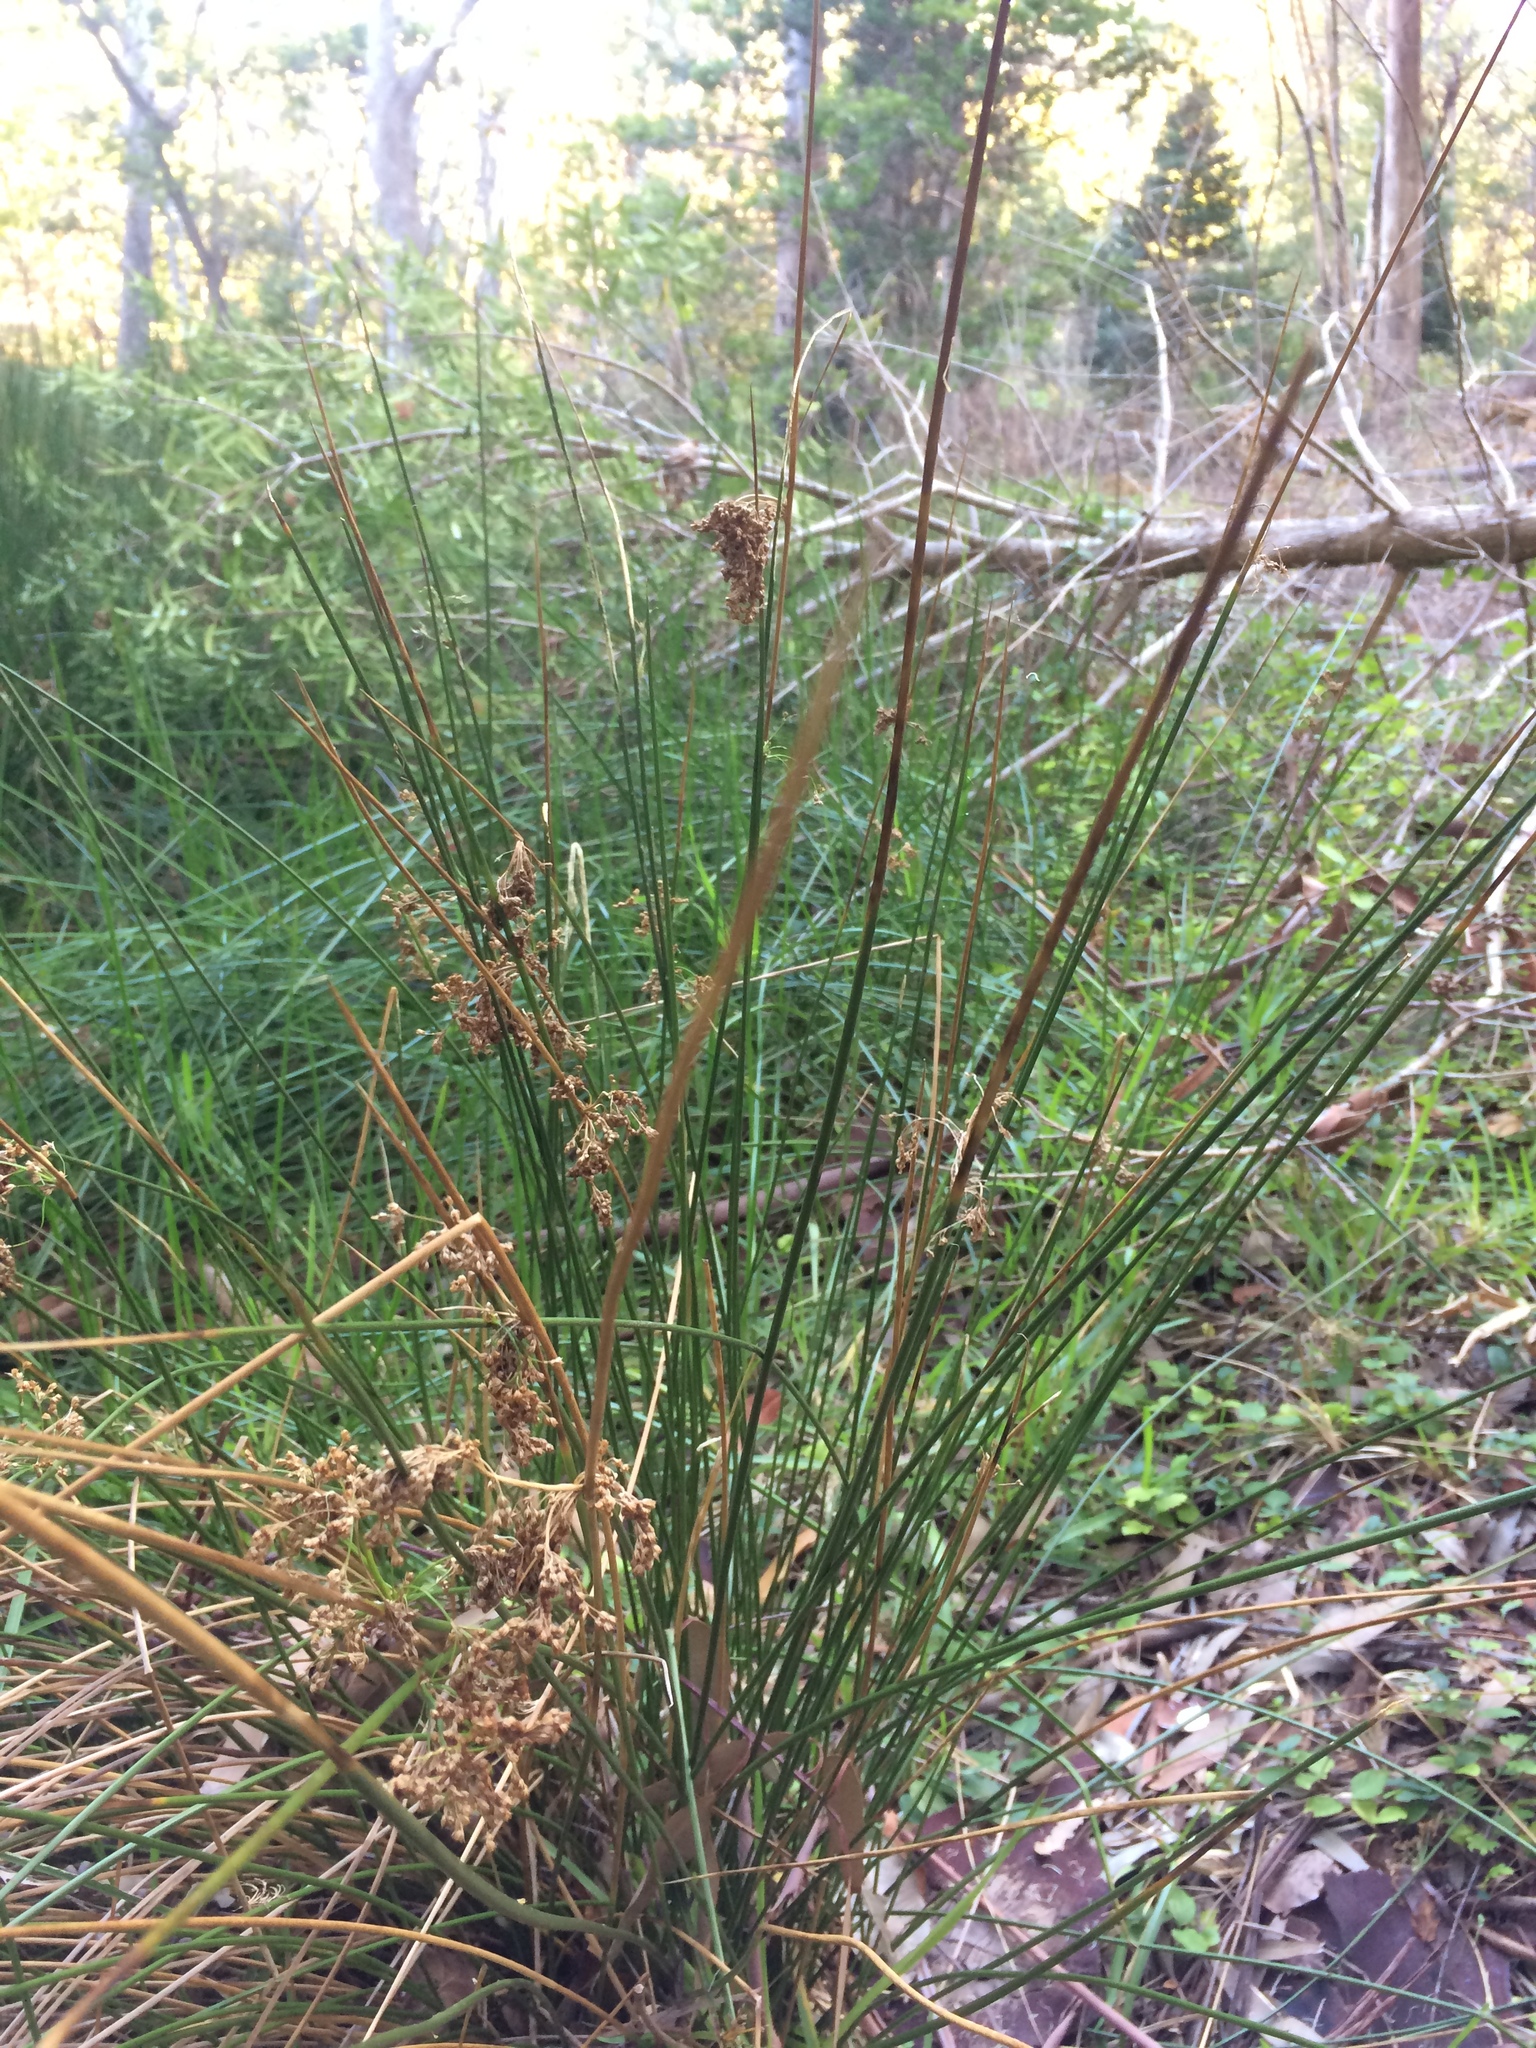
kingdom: Plantae
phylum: Tracheophyta
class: Liliopsida
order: Poales
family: Juncaceae
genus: Juncus
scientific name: Juncus kraussii
